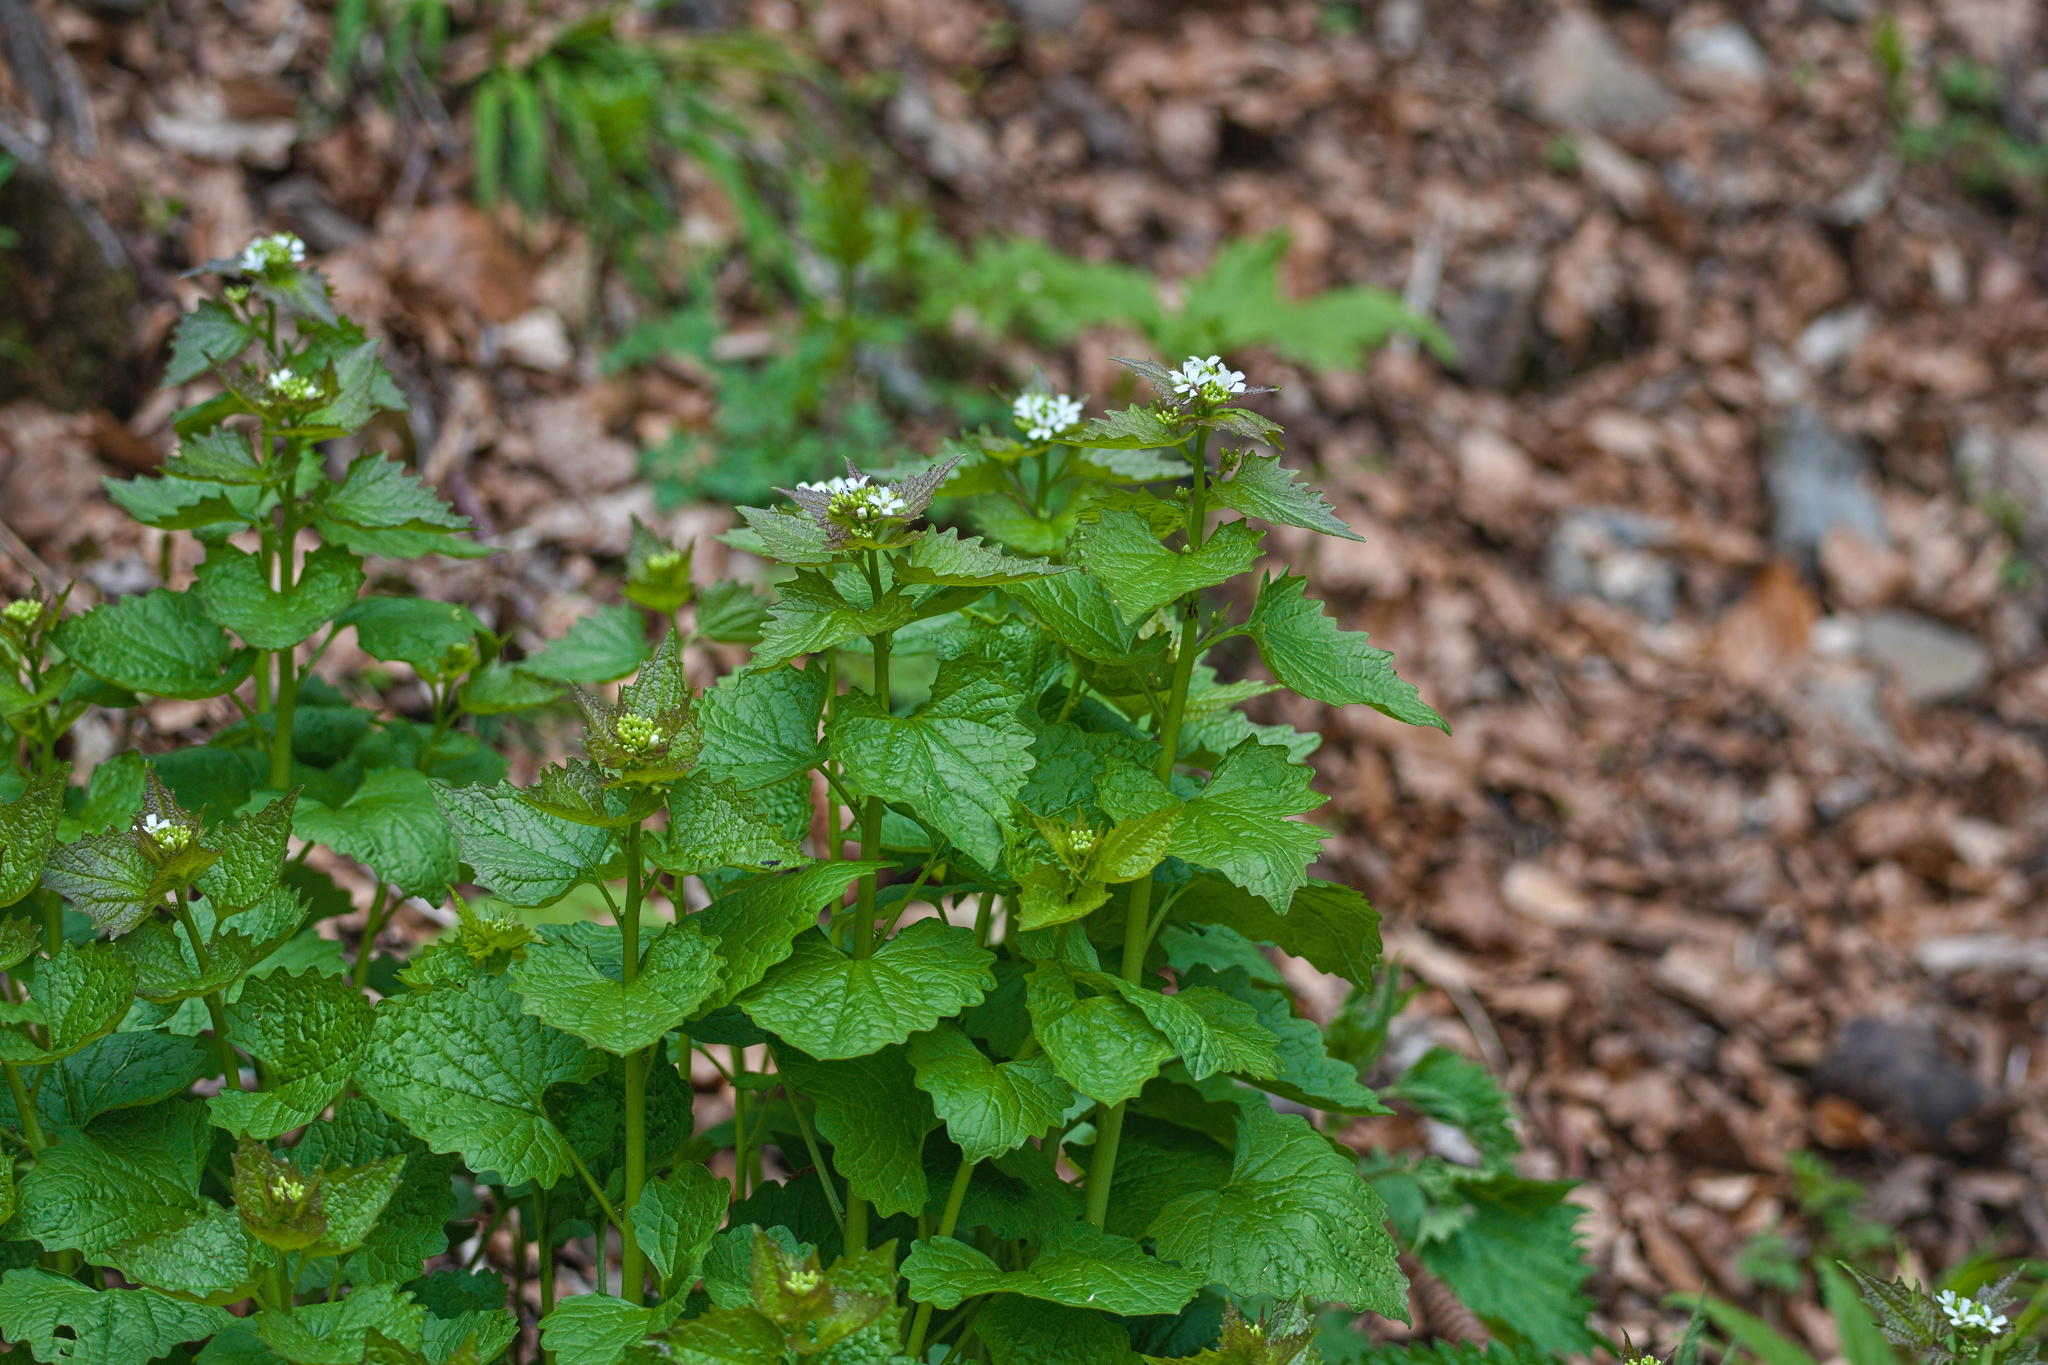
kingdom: Plantae
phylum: Tracheophyta
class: Magnoliopsida
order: Brassicales
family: Brassicaceae
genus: Alliaria
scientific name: Alliaria petiolata
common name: Garlic mustard
